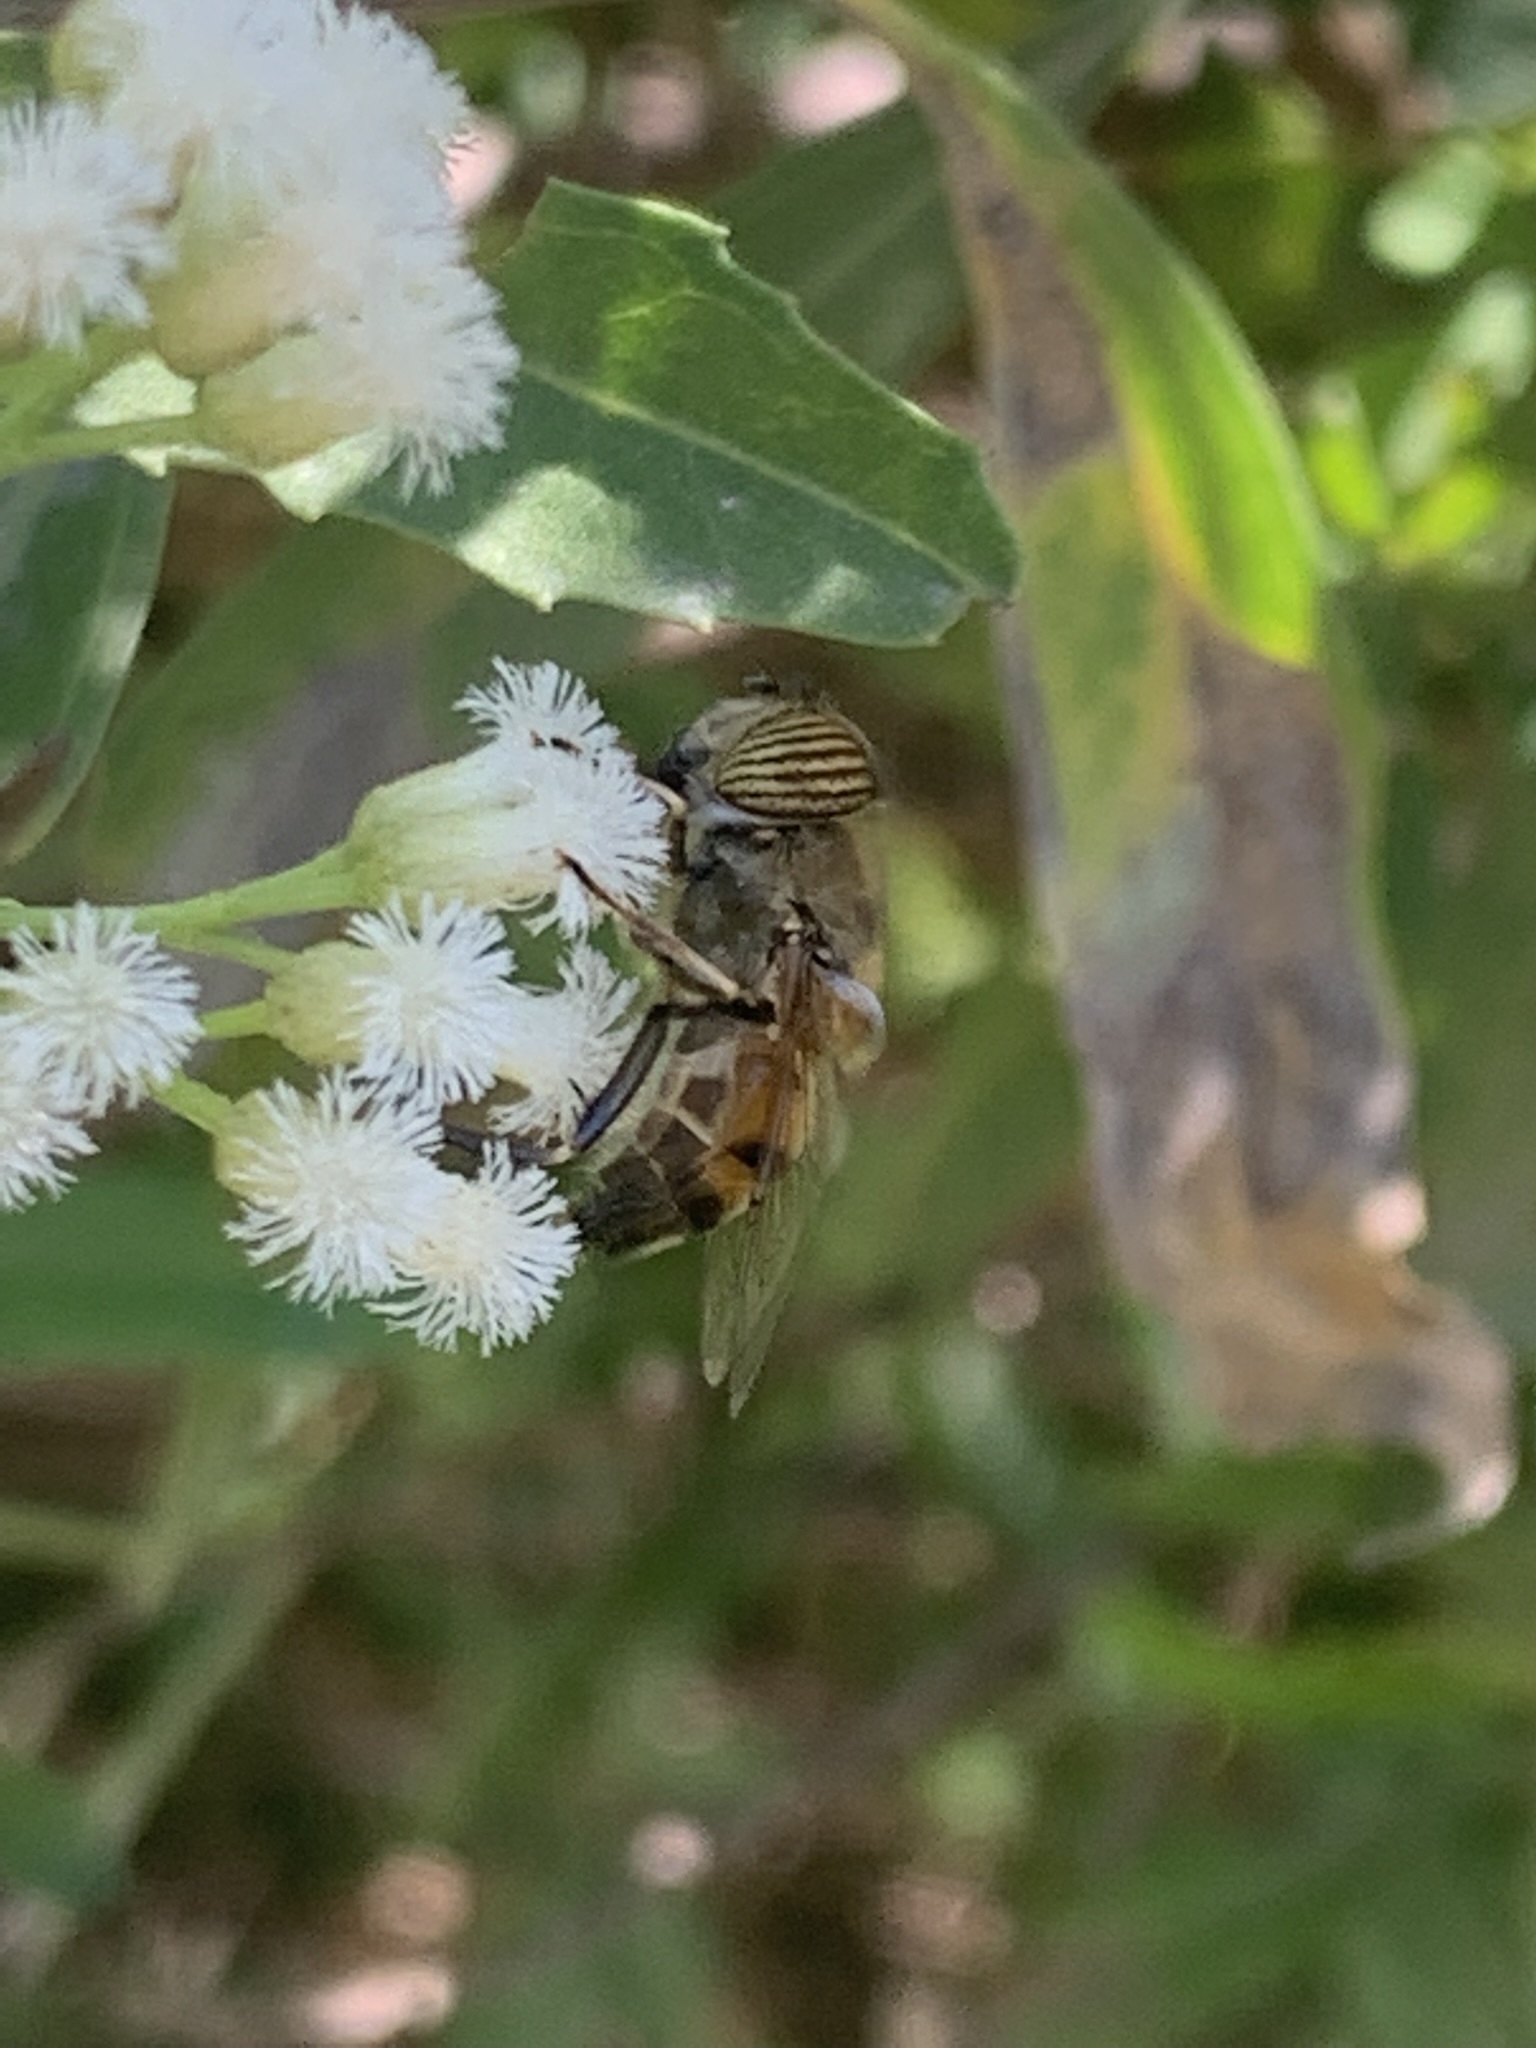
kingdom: Animalia
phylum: Arthropoda
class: Insecta
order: Diptera
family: Syrphidae
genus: Eristalinus
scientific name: Eristalinus taeniops
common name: Syrphid fly
